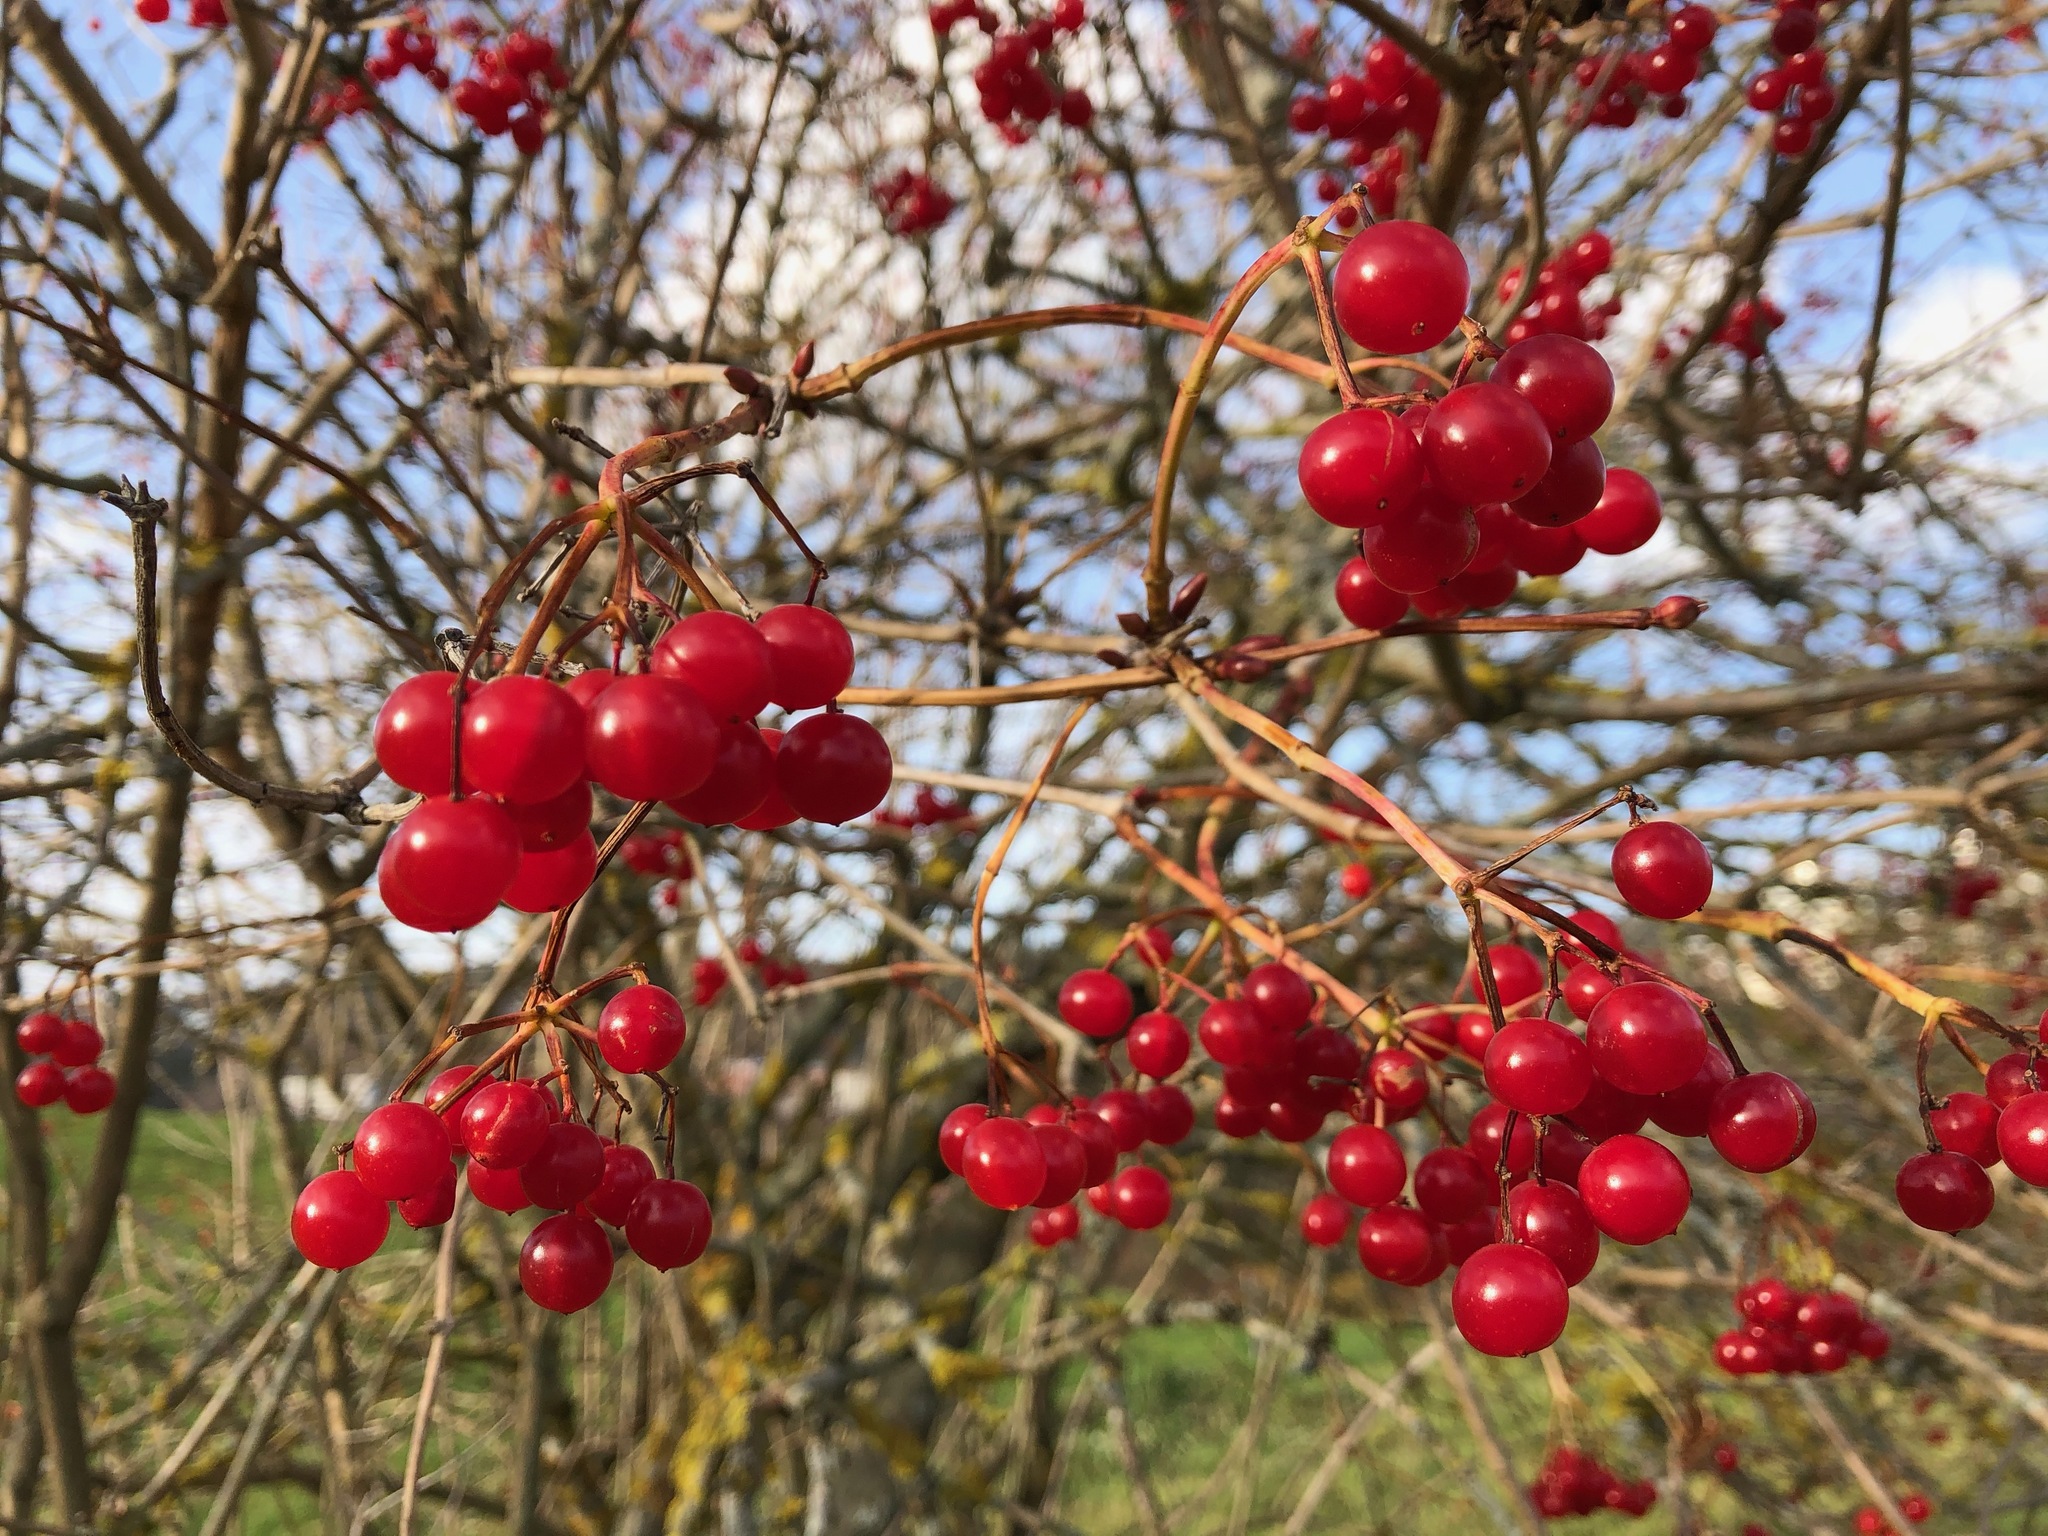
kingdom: Plantae
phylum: Tracheophyta
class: Magnoliopsida
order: Dipsacales
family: Viburnaceae
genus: Viburnum
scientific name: Viburnum opulus
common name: Guelder-rose
